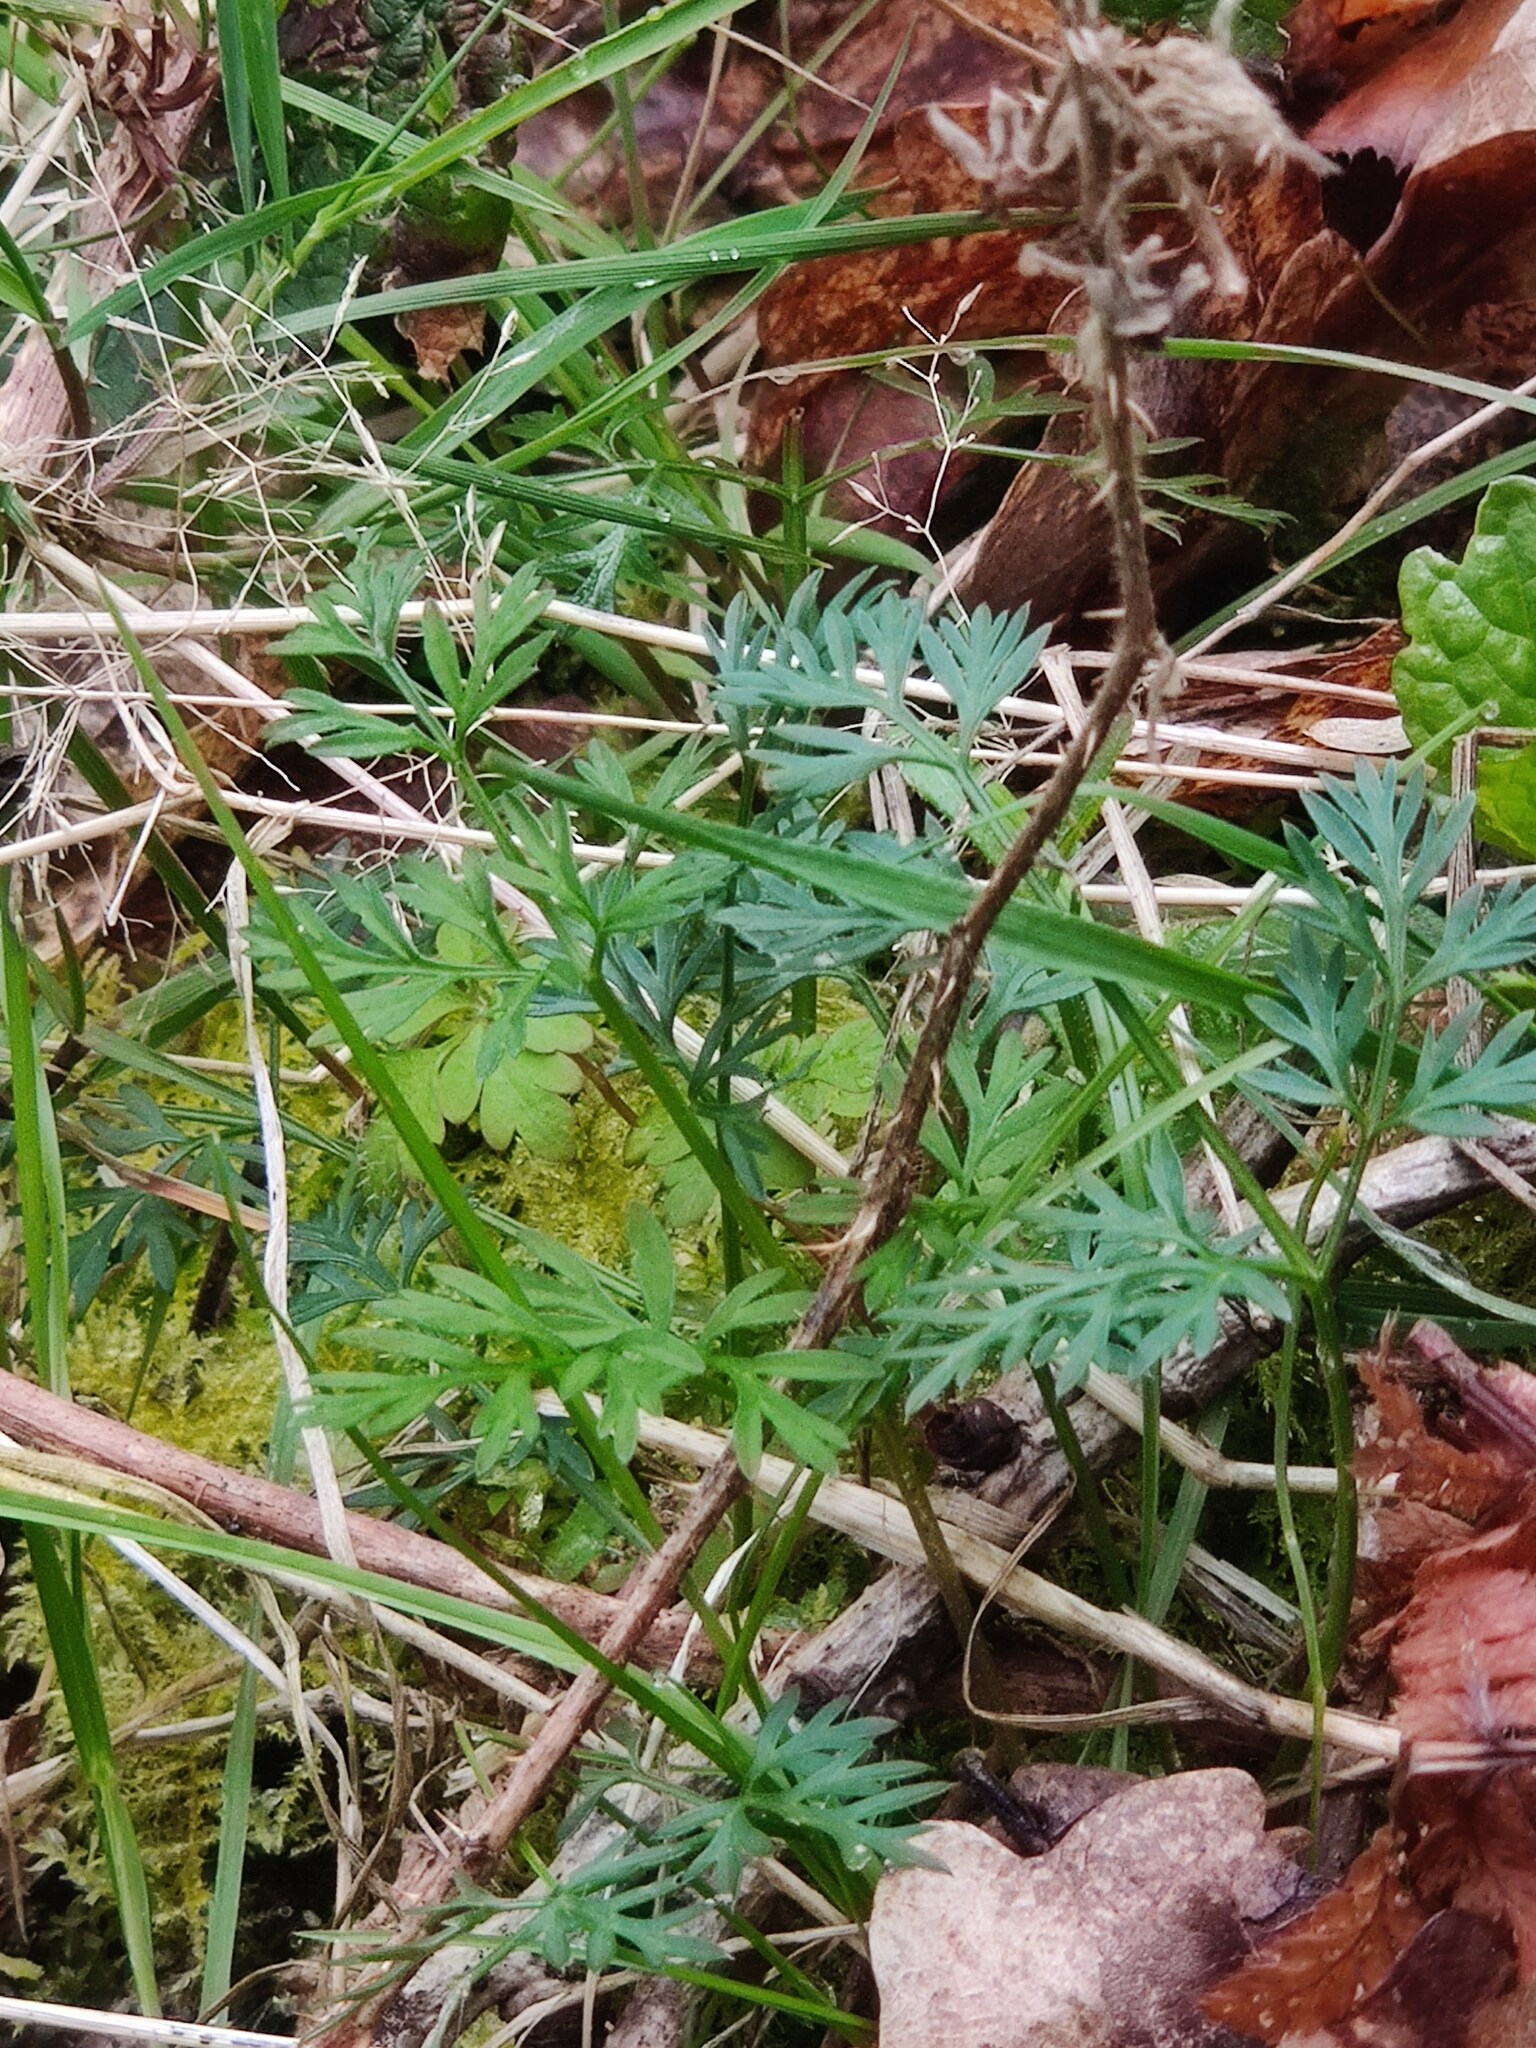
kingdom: Plantae
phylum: Tracheophyta
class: Magnoliopsida
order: Apiales
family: Apiaceae
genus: Conopodium
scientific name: Conopodium majus
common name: Pignut
